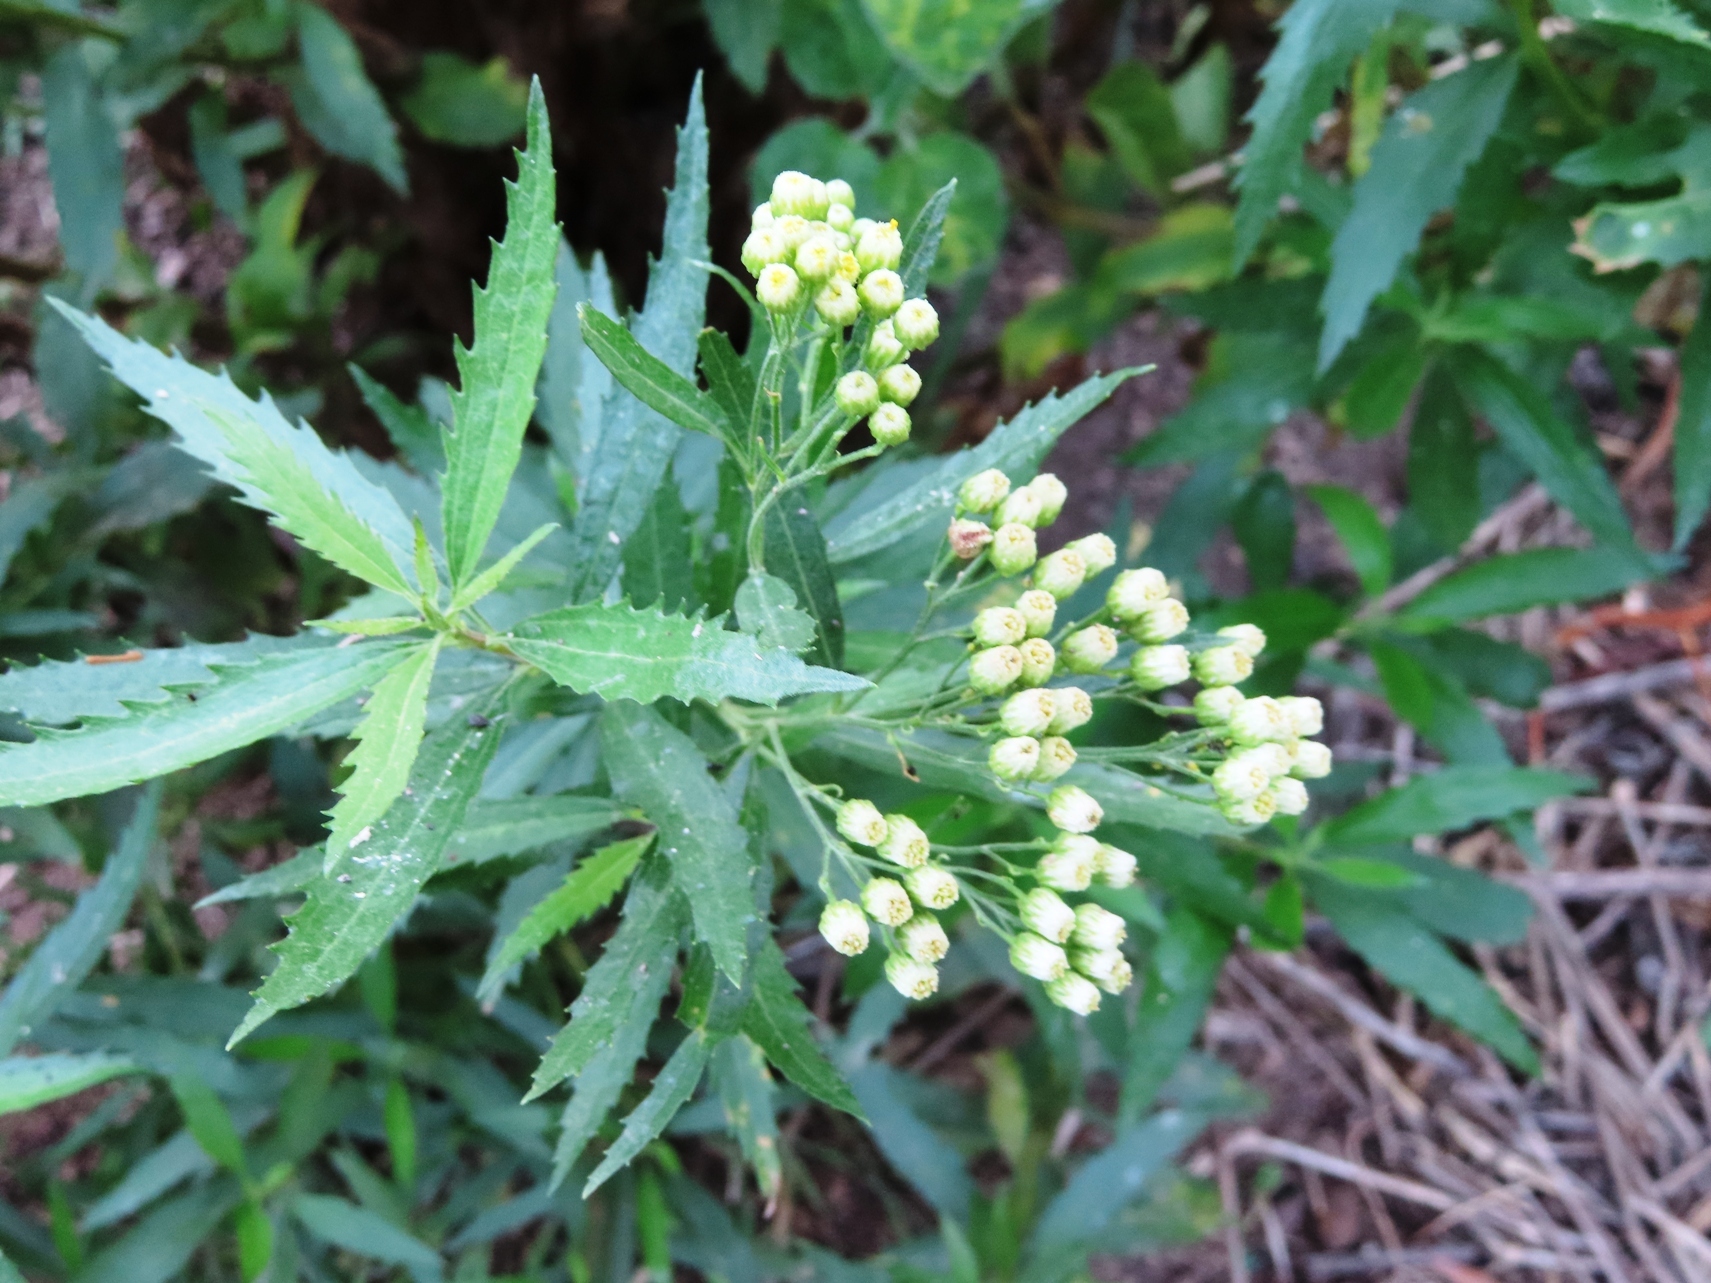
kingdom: Plantae
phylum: Tracheophyta
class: Magnoliopsida
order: Asterales
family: Asteraceae
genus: Nidorella
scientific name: Nidorella ivifolia
